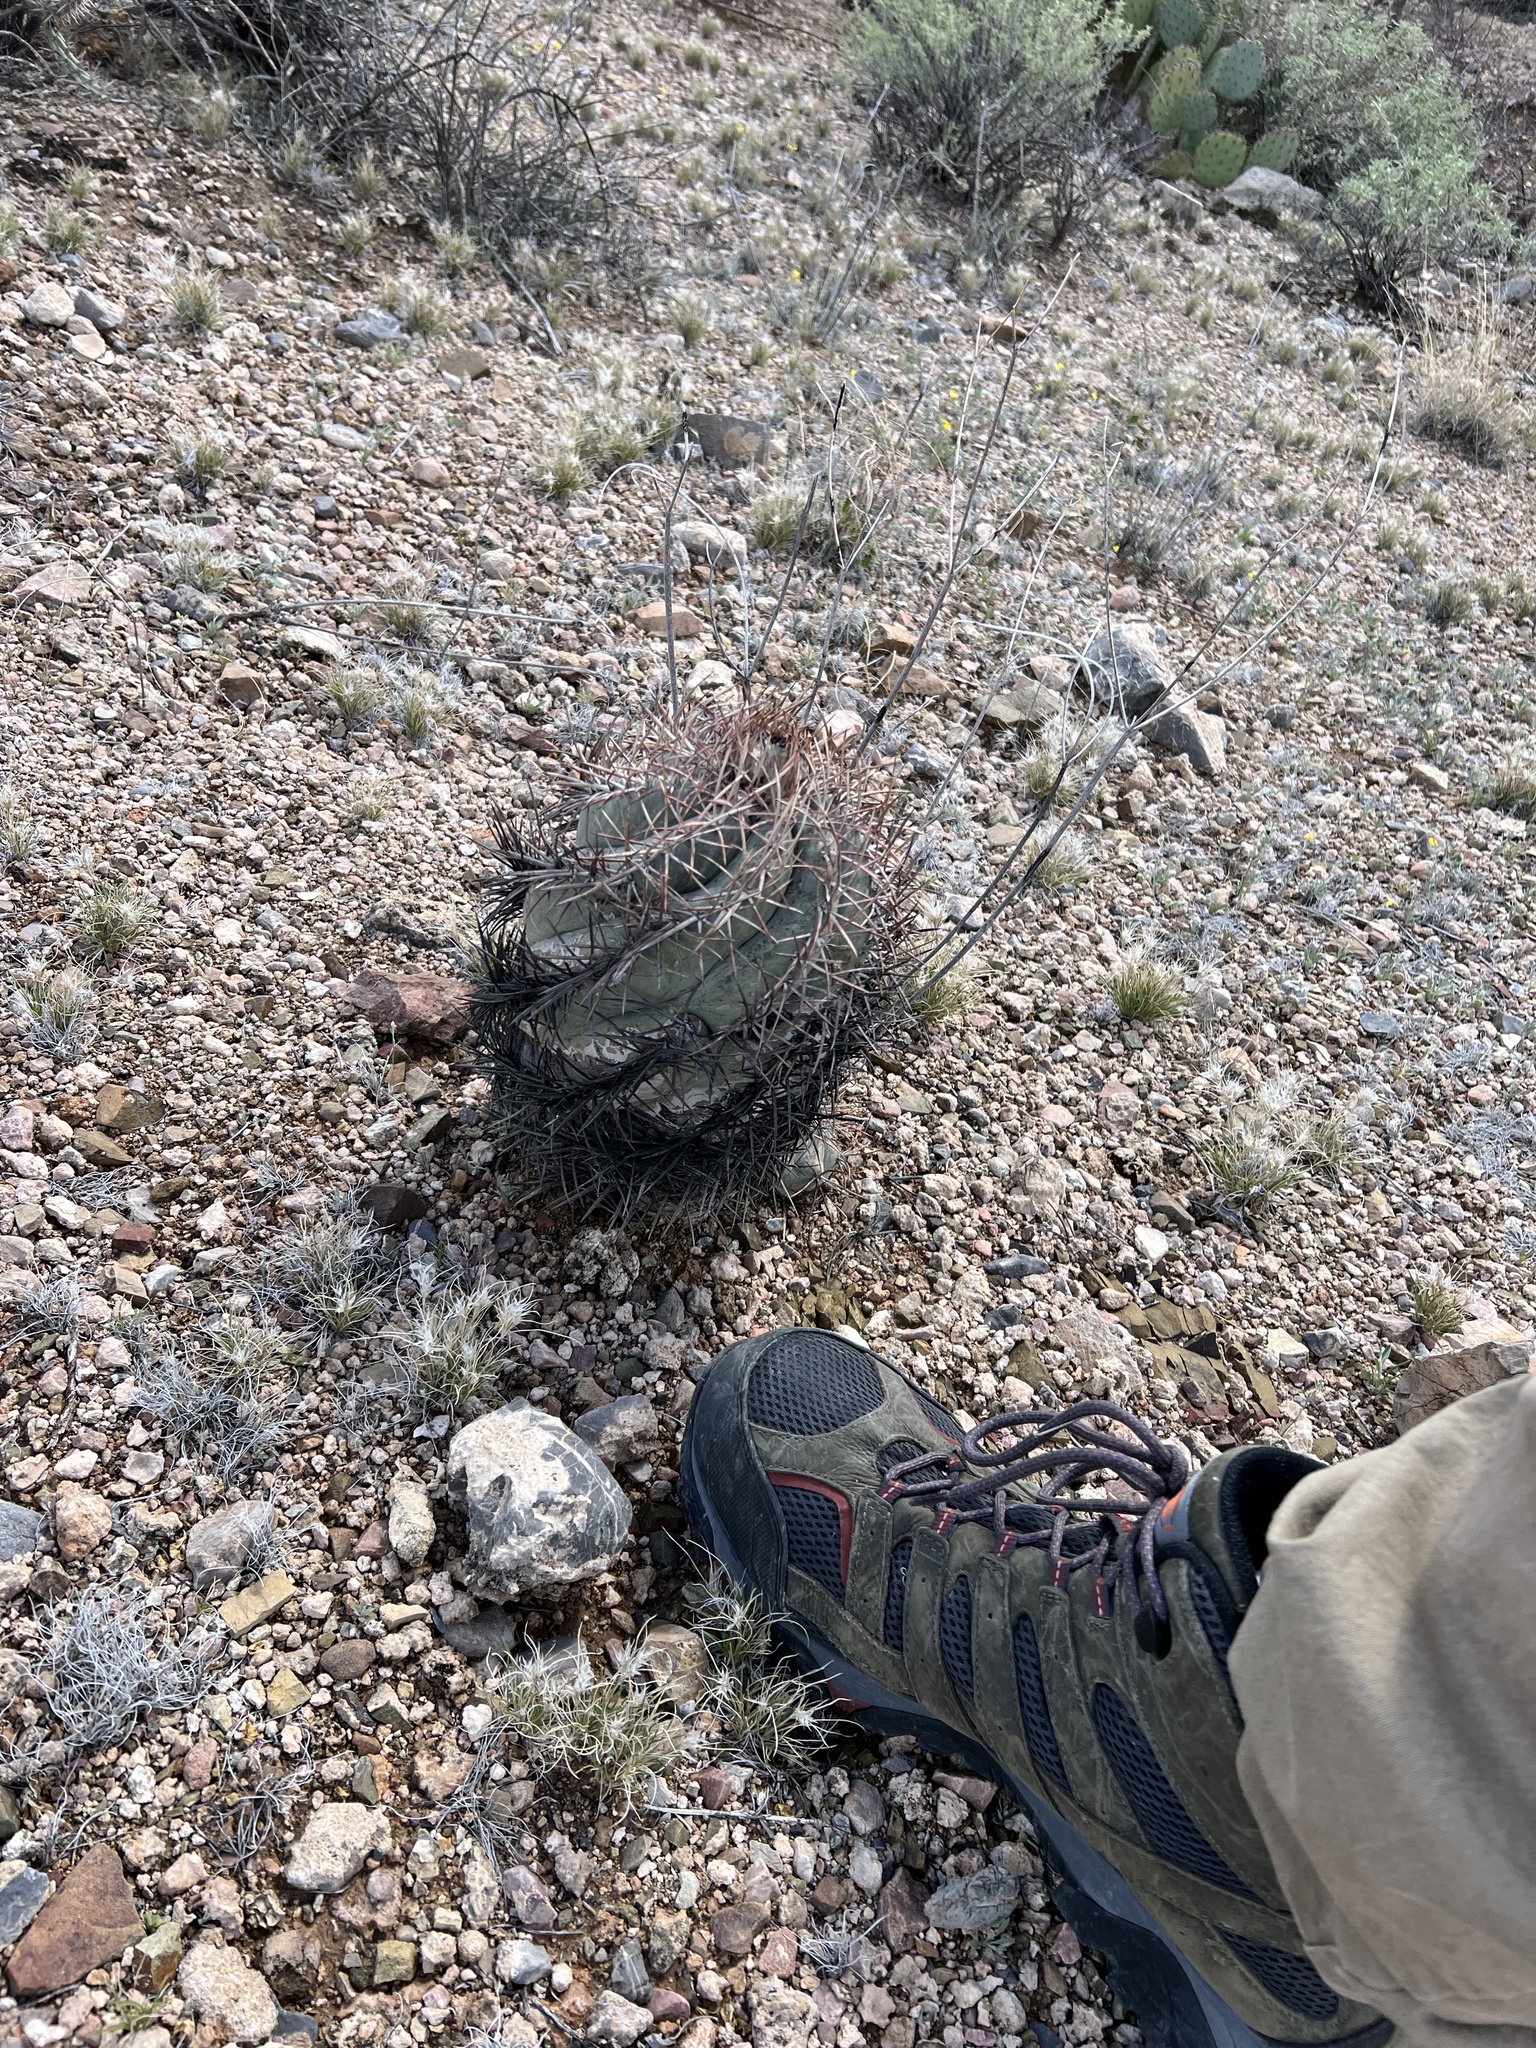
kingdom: Plantae
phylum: Tracheophyta
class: Magnoliopsida
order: Caryophyllales
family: Cactaceae
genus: Echinocactus
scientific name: Echinocactus horizonthalonius
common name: Devilshead
